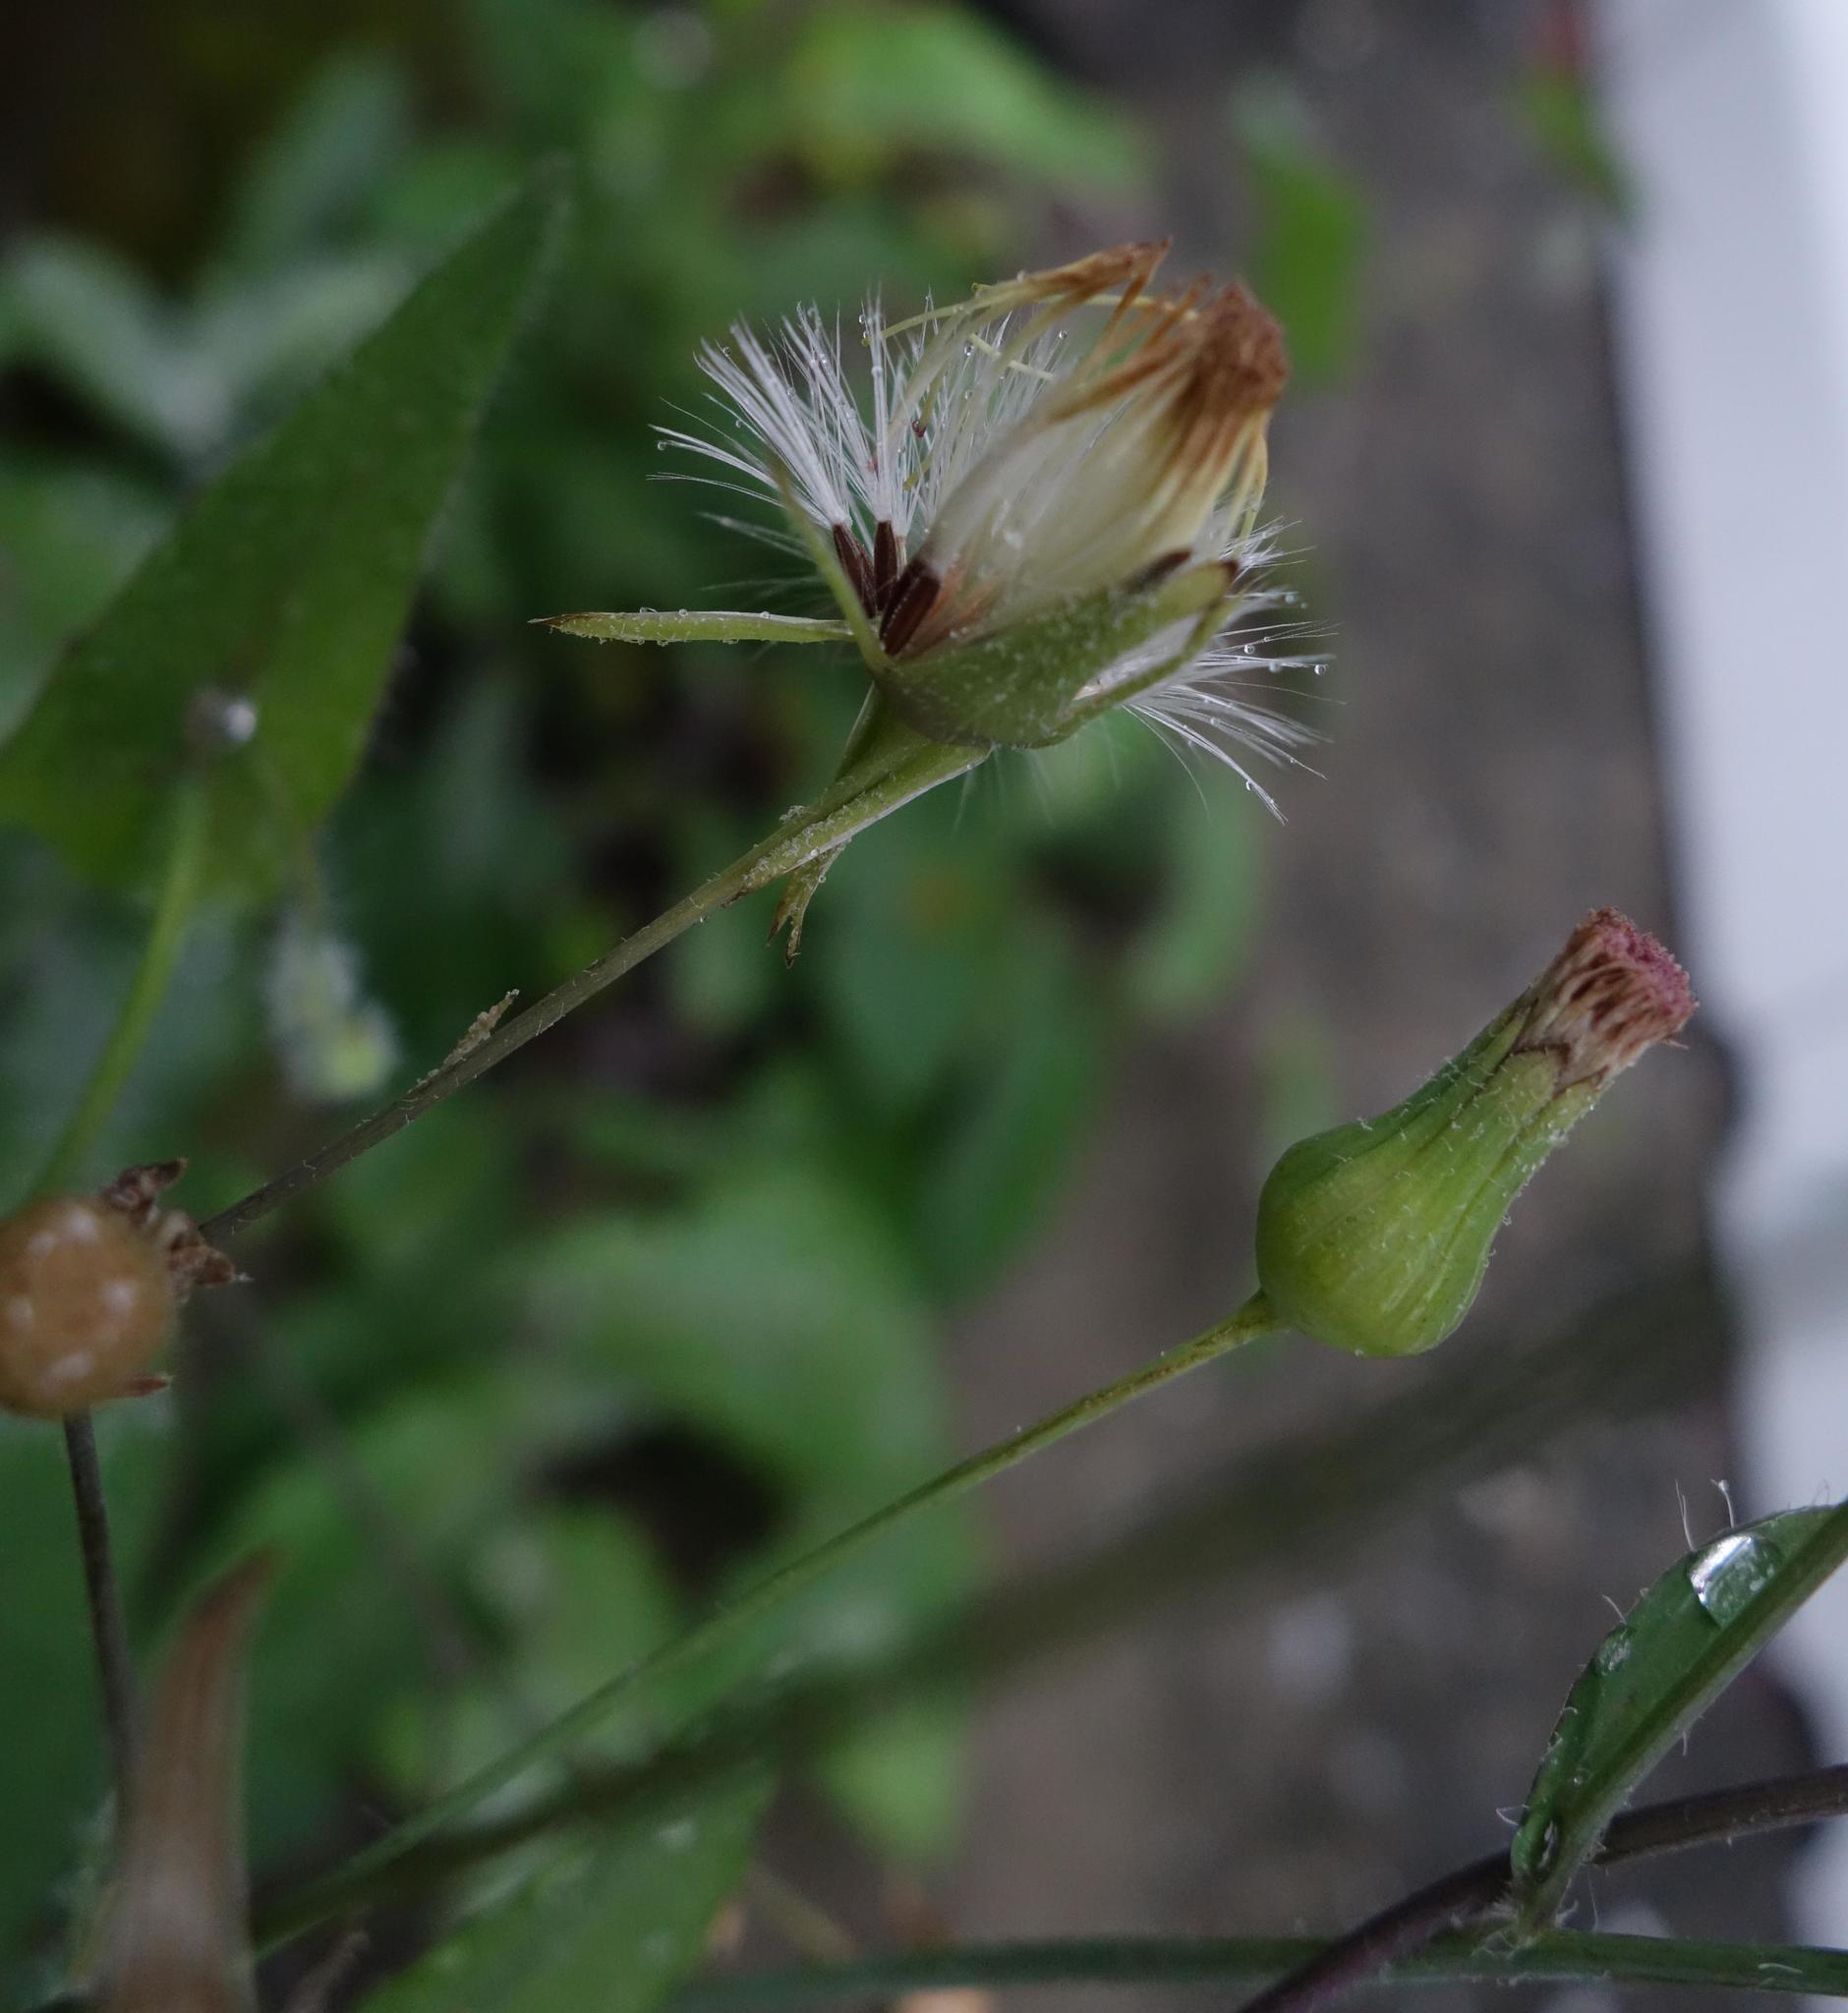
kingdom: Plantae
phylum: Tracheophyta
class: Magnoliopsida
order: Asterales
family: Asteraceae
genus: Emilia
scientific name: Emilia javanica
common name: Tassel-flower
